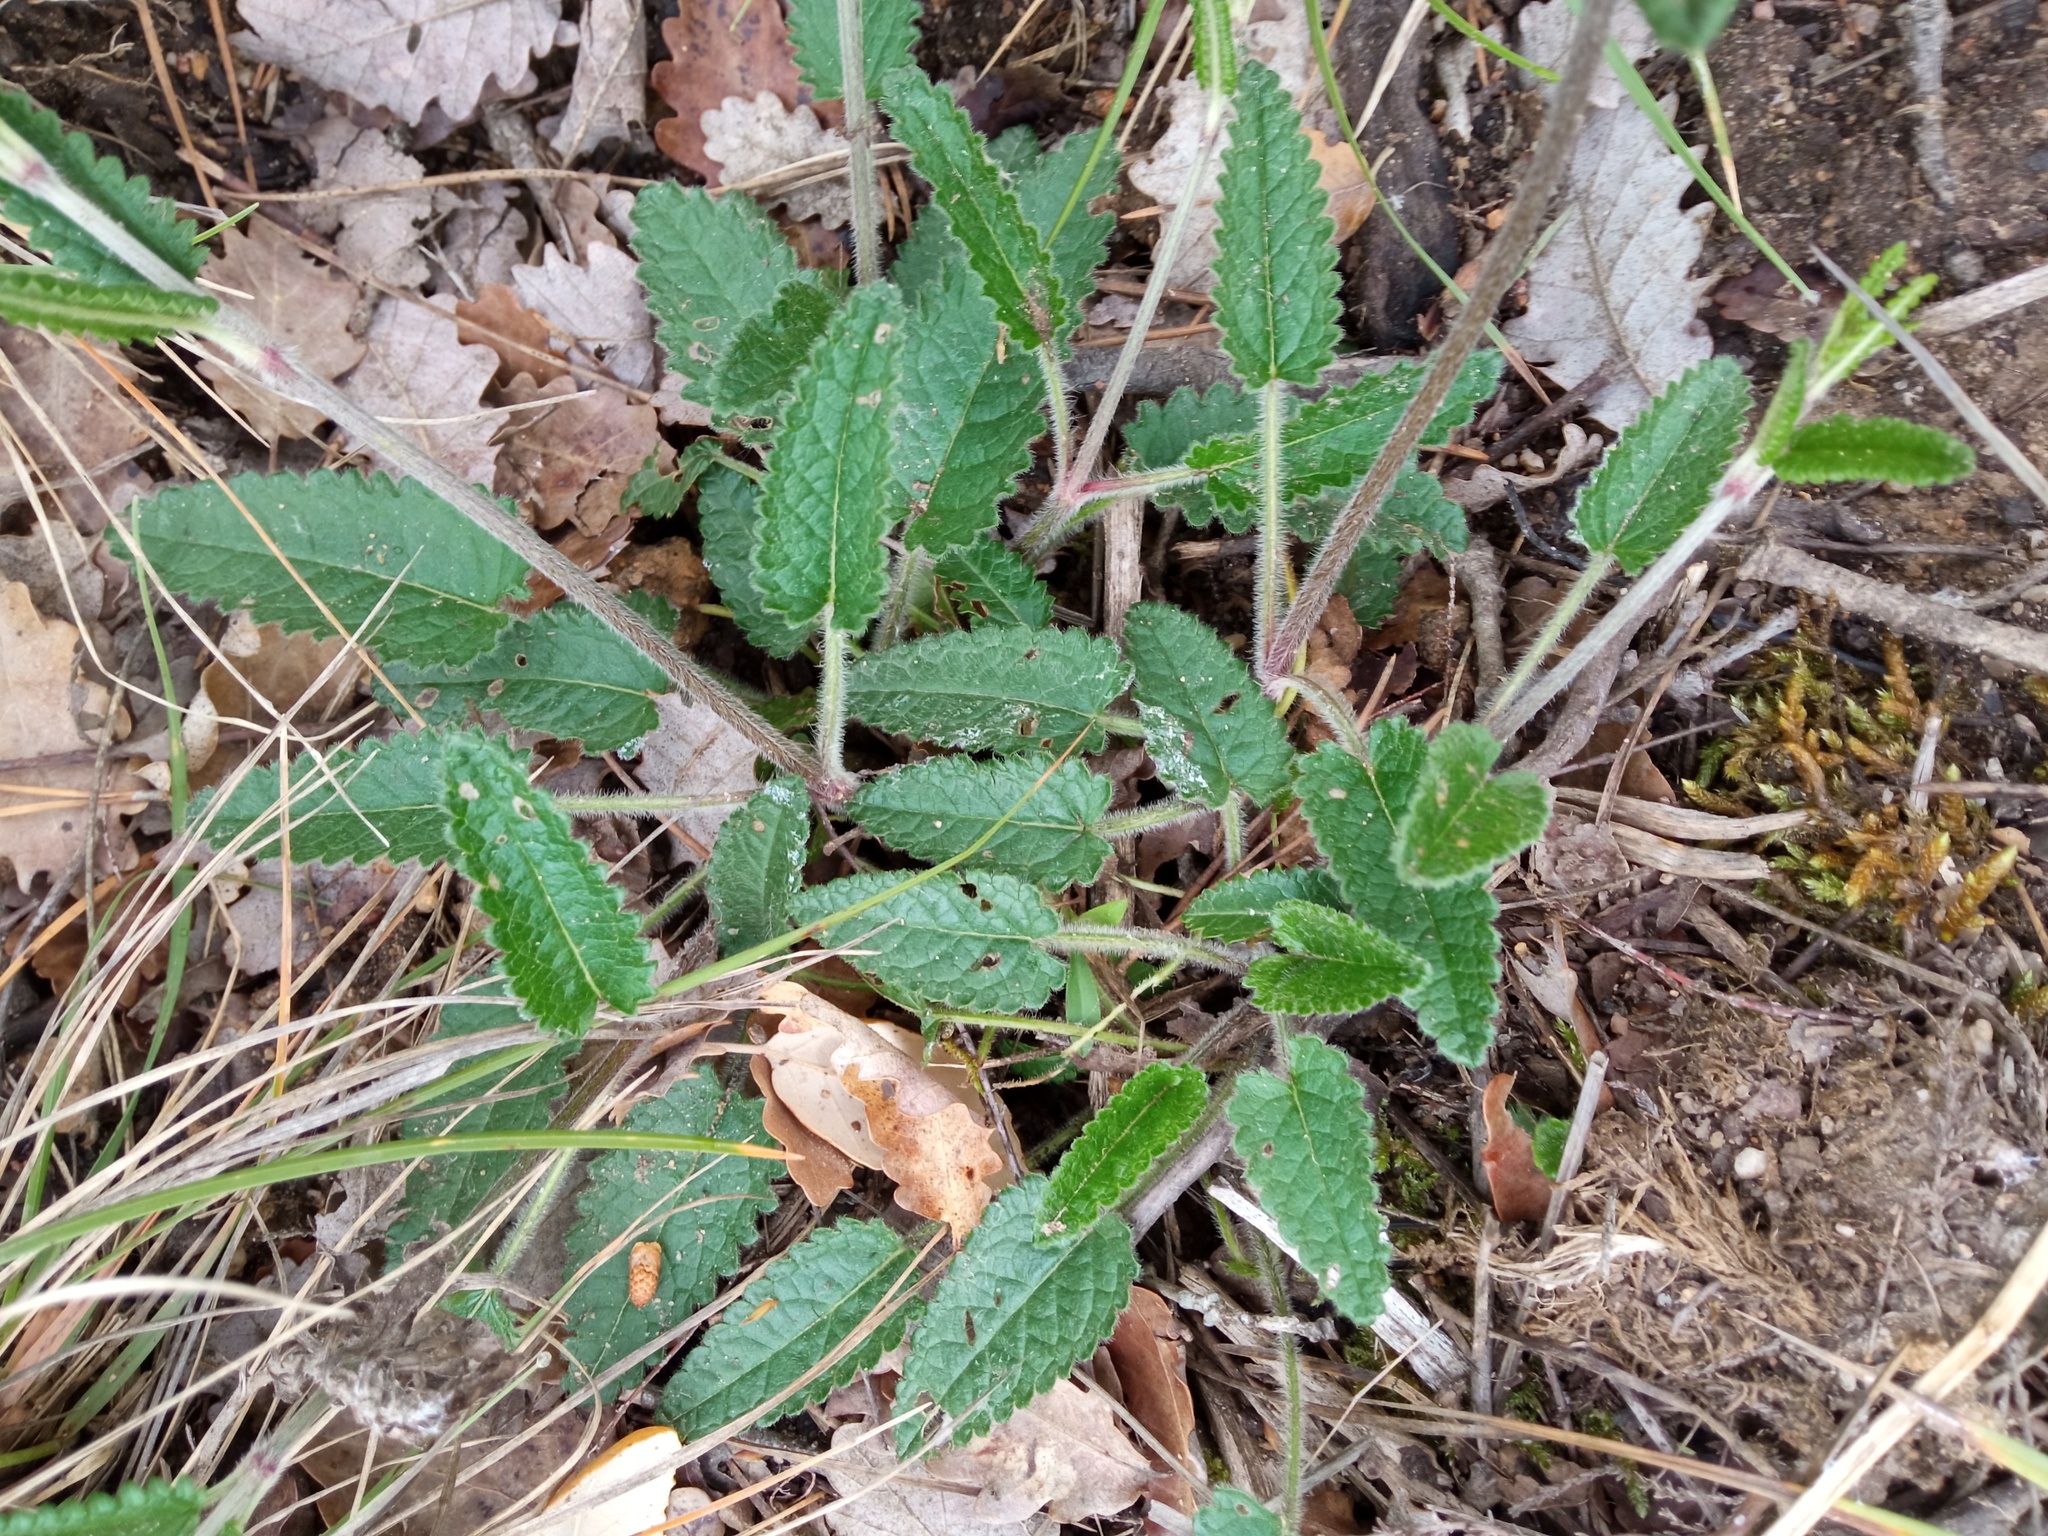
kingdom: Plantae
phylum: Tracheophyta
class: Magnoliopsida
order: Lamiales
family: Lamiaceae
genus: Betonica
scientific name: Betonica officinalis
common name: Bishop's-wort
